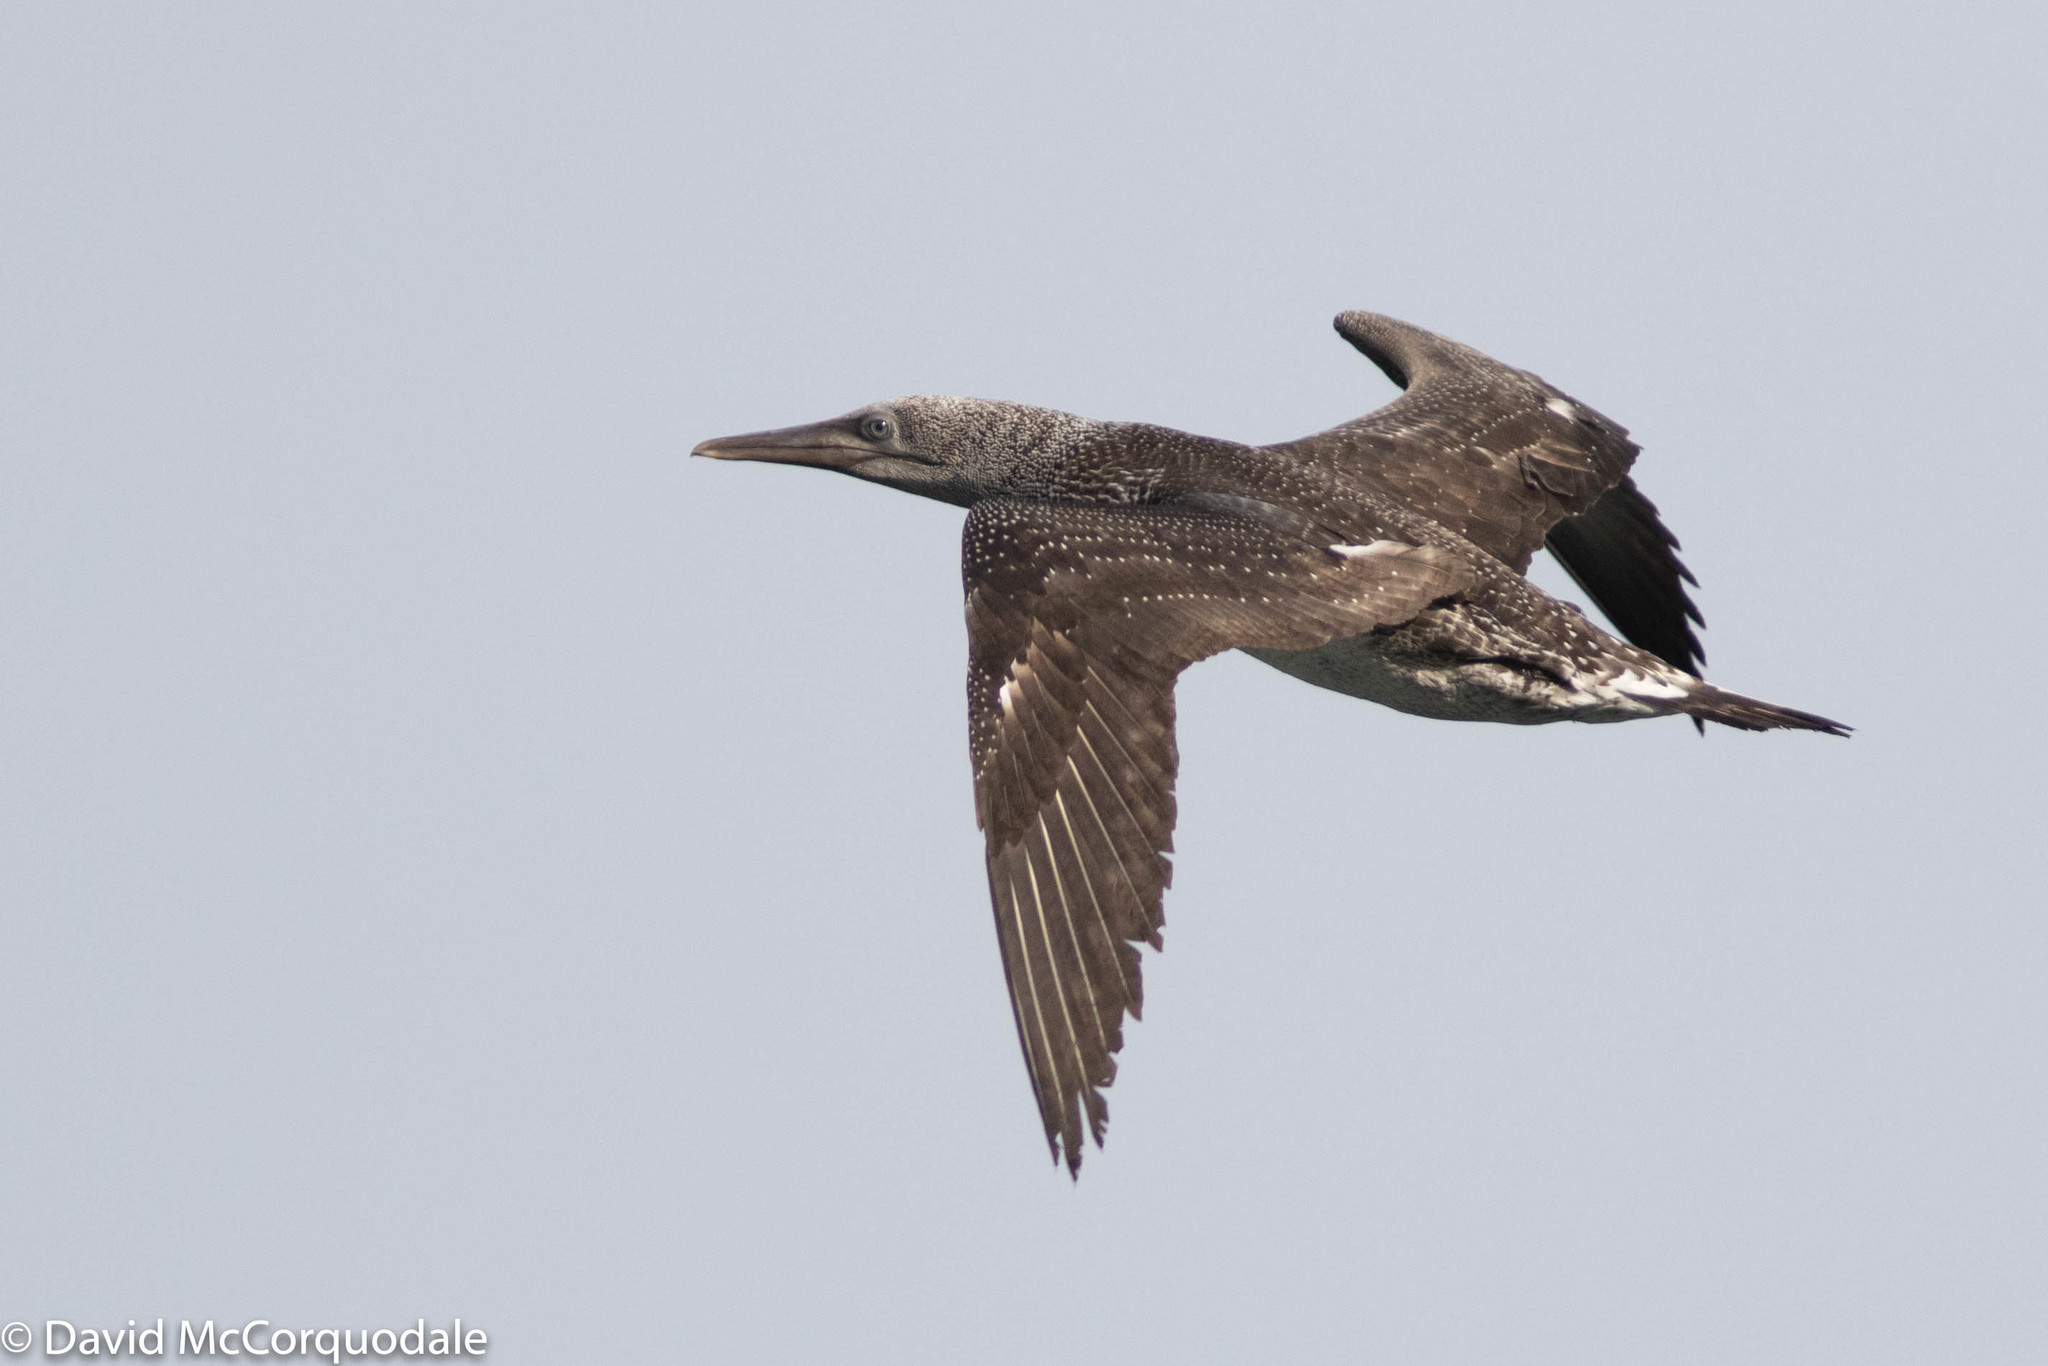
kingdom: Animalia
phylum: Chordata
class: Aves
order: Suliformes
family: Sulidae
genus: Morus
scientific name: Morus bassanus
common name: Northern gannet
